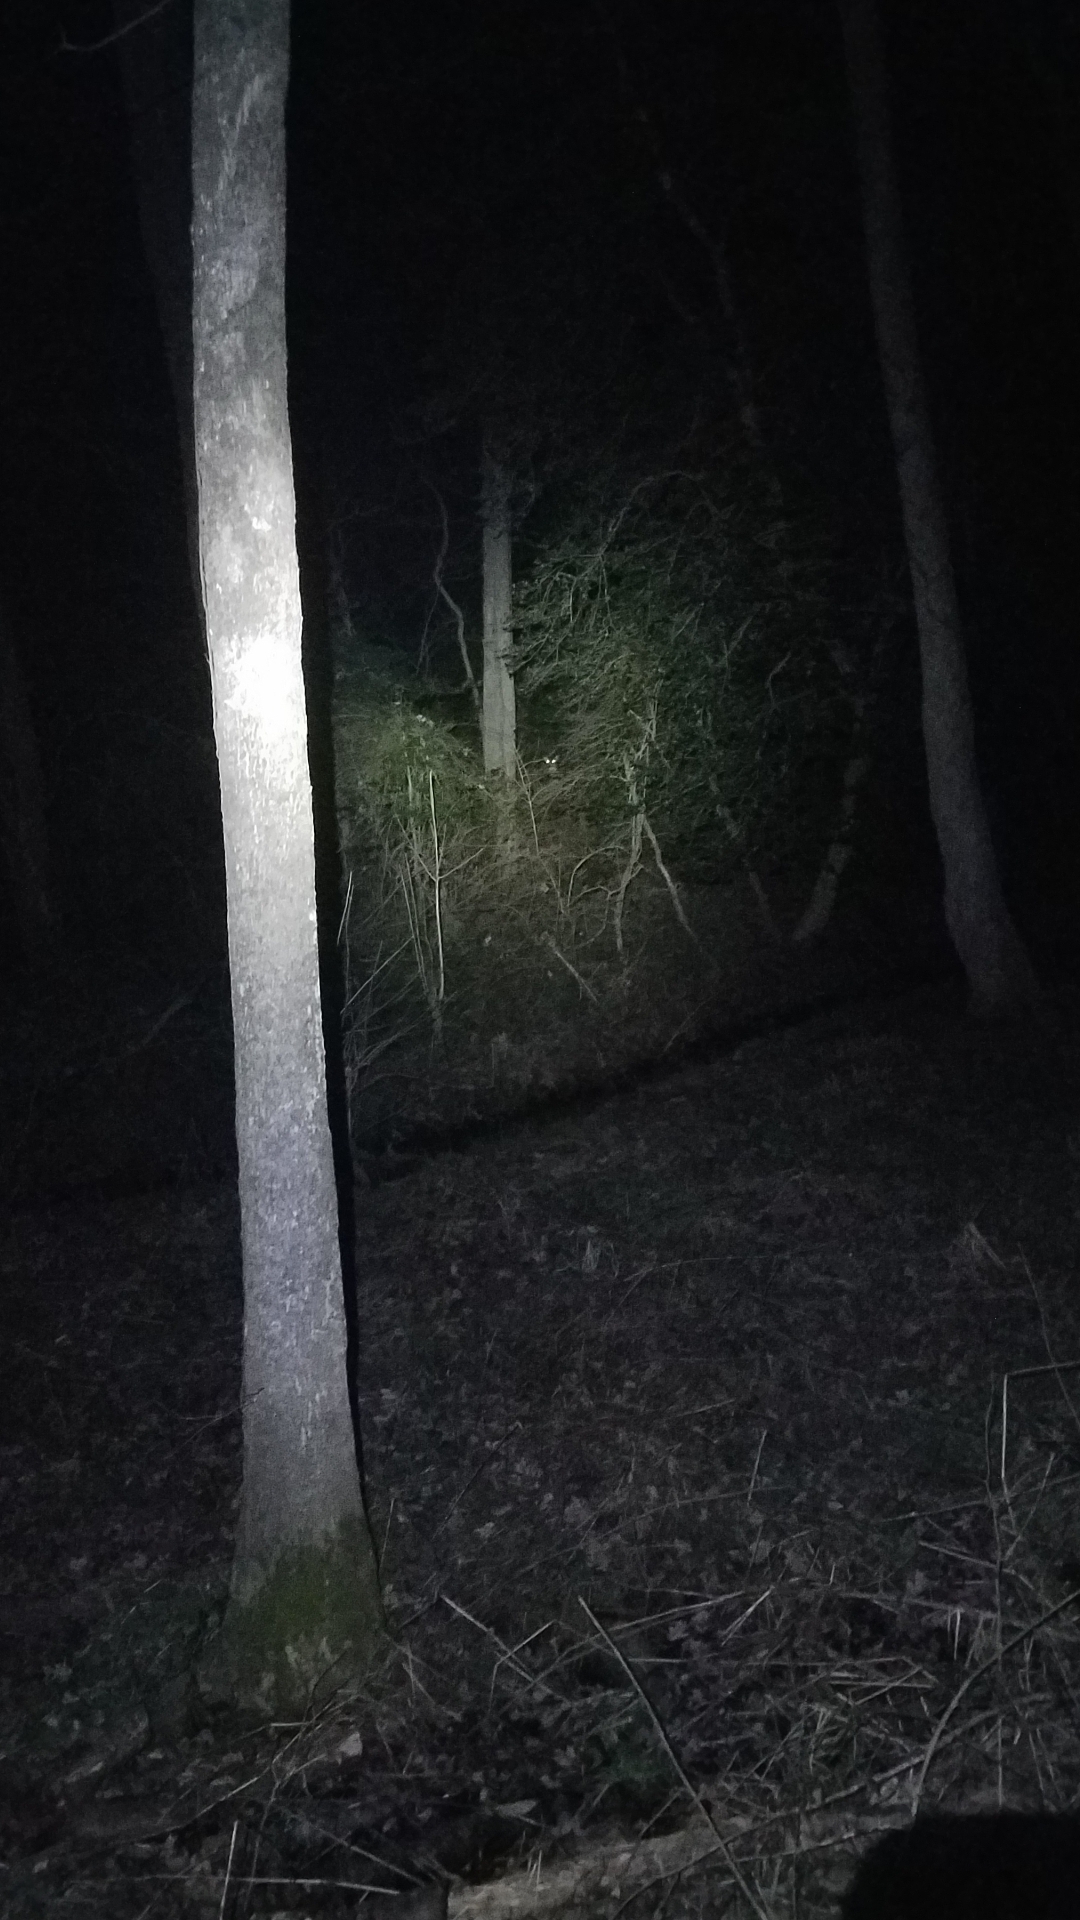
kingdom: Animalia
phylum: Chordata
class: Mammalia
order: Artiodactyla
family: Cervidae
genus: Odocoileus
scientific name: Odocoileus virginianus
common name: White-tailed deer
